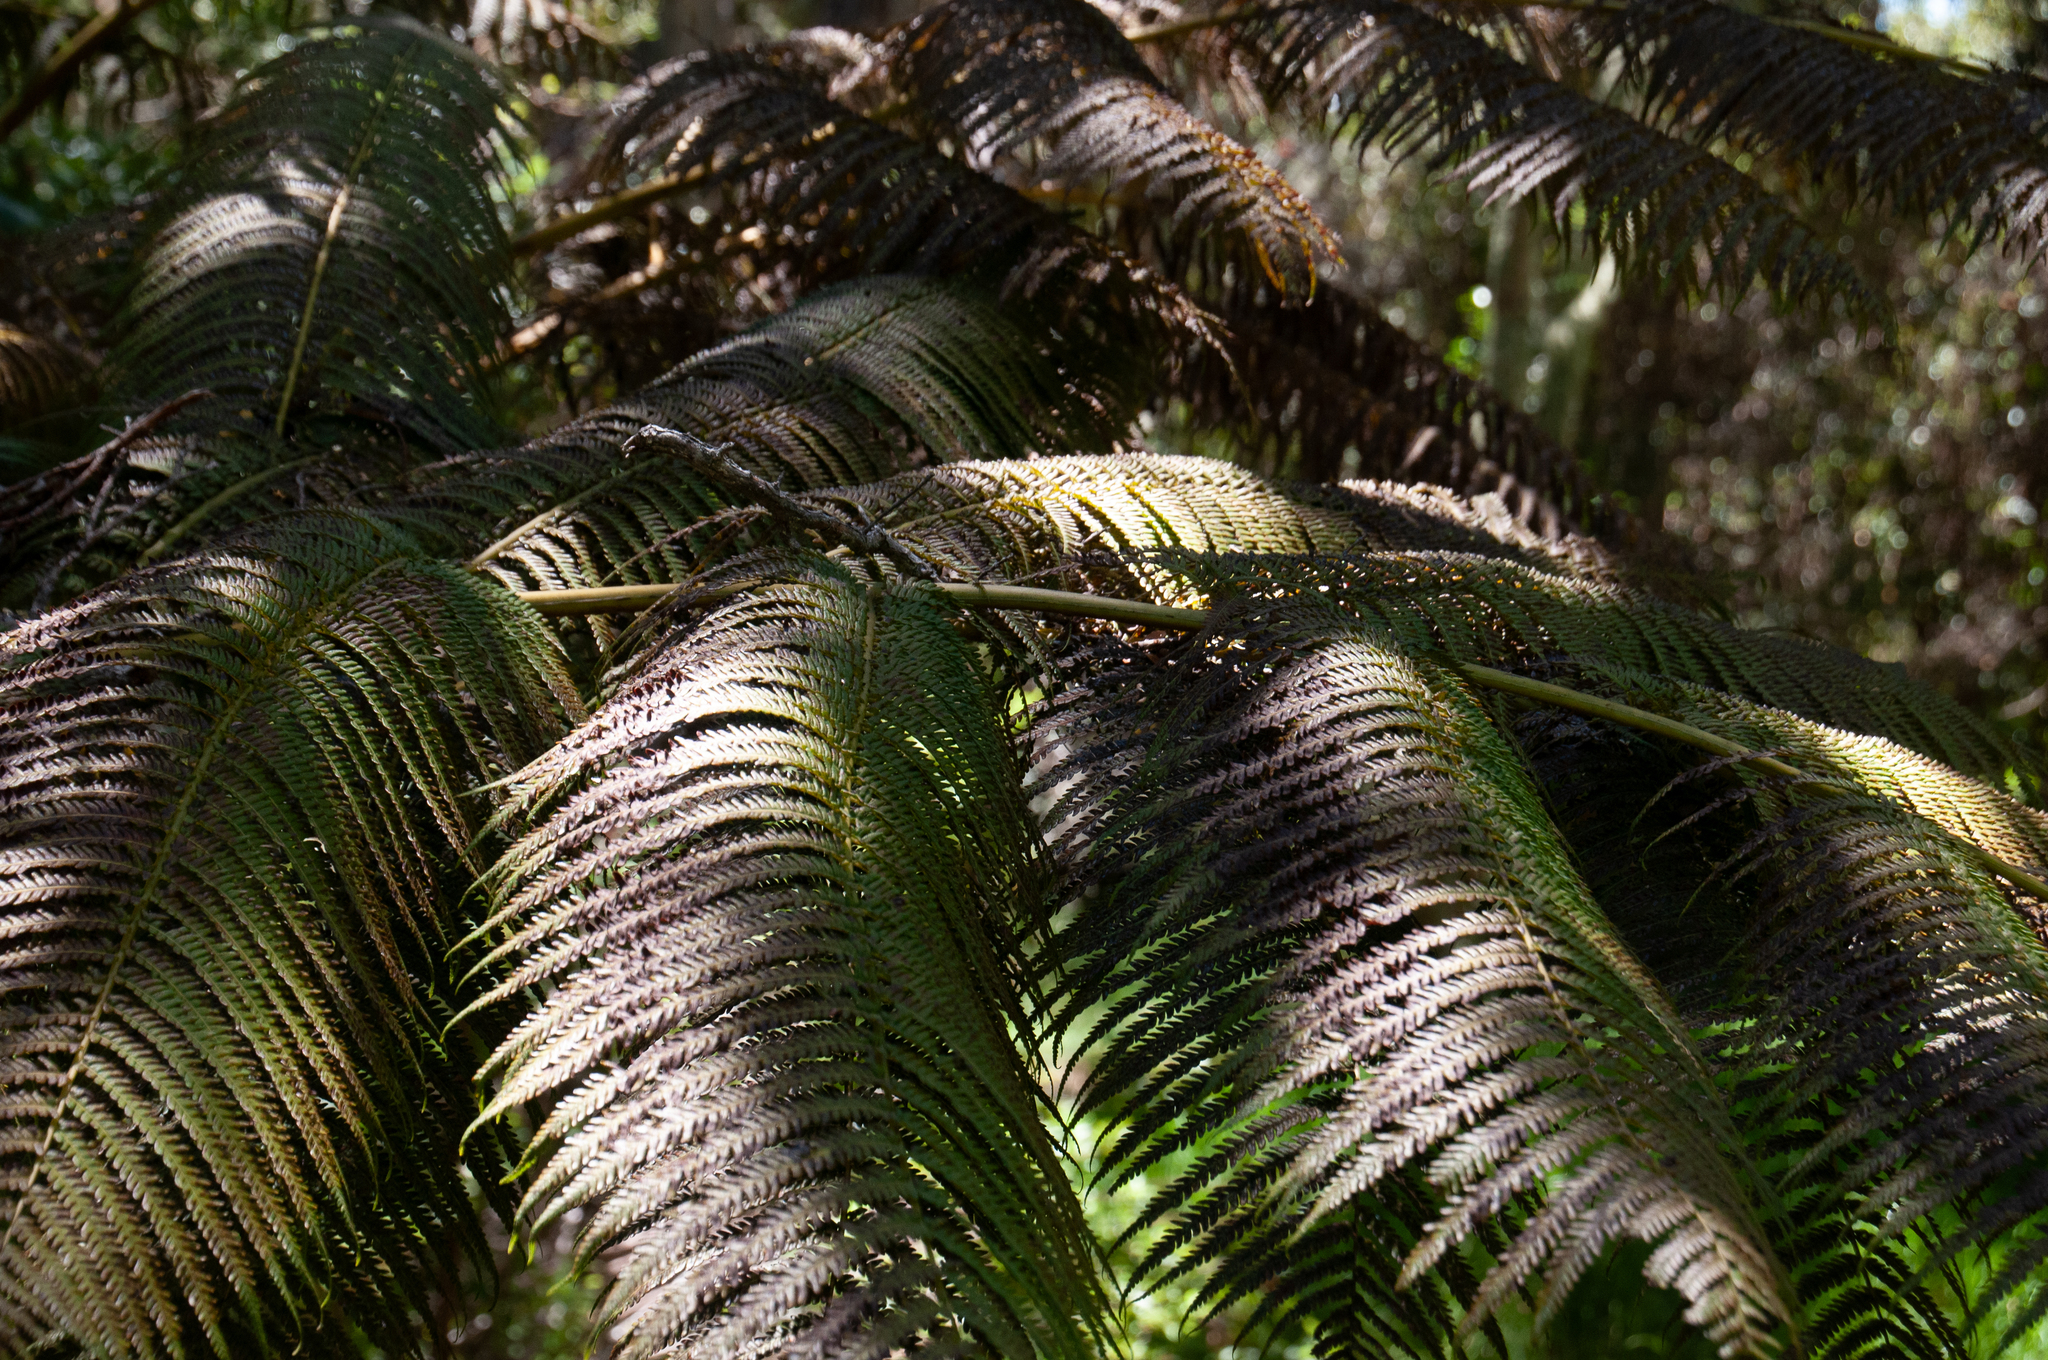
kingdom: Plantae
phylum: Tracheophyta
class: Polypodiopsida
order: Cyatheales
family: Cibotiaceae
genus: Cibotium
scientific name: Cibotium glaucum
